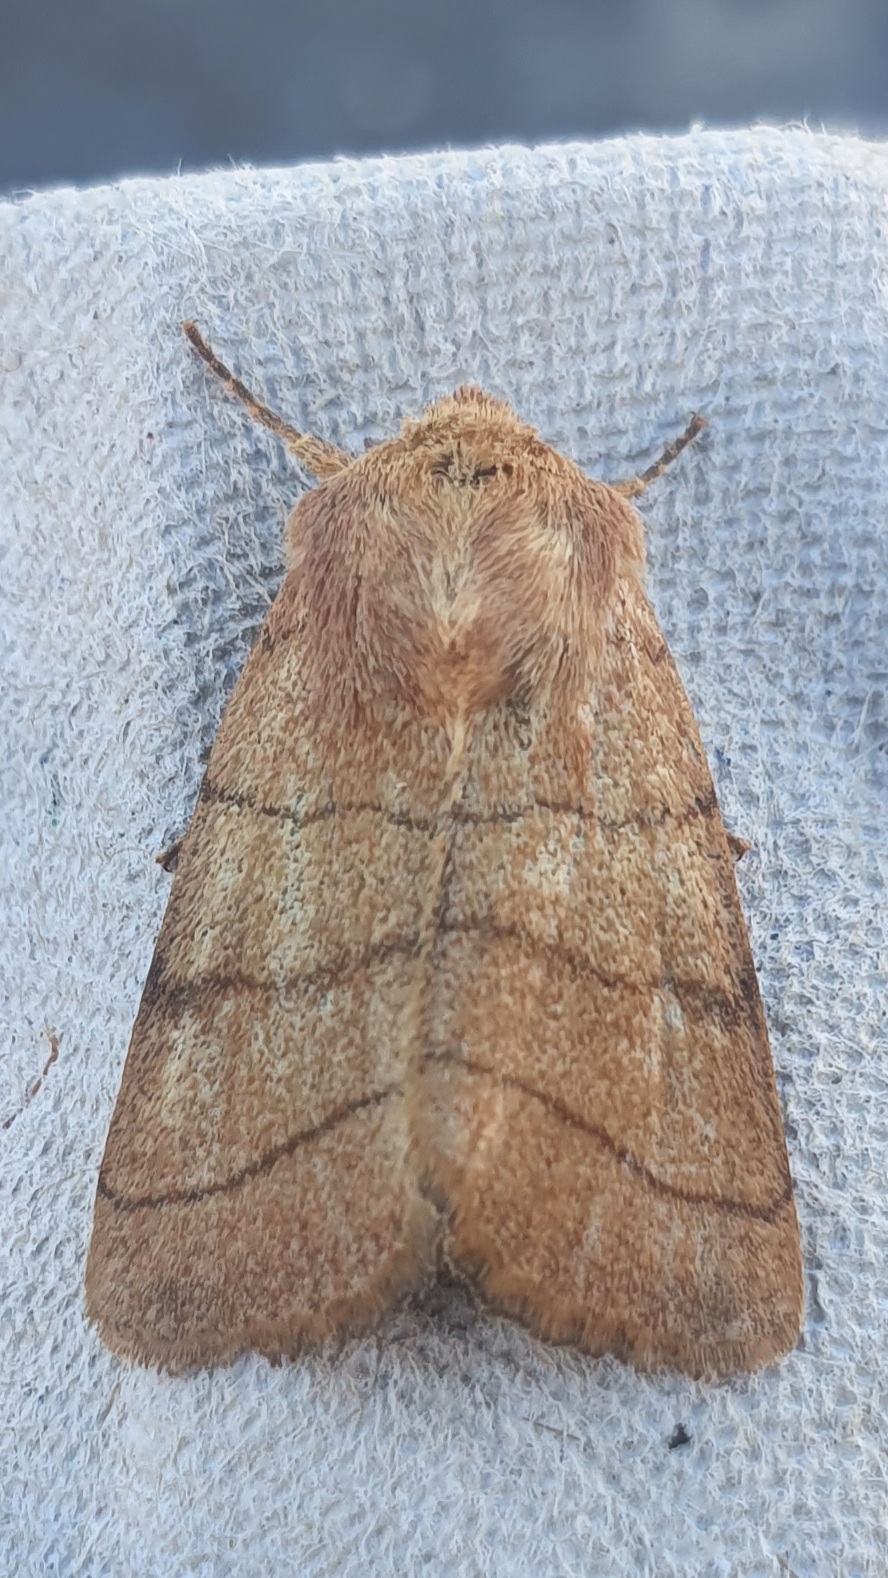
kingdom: Animalia
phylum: Arthropoda
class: Insecta
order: Lepidoptera
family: Noctuidae
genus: Charanyca
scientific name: Charanyca trigrammica
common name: Treble lines
